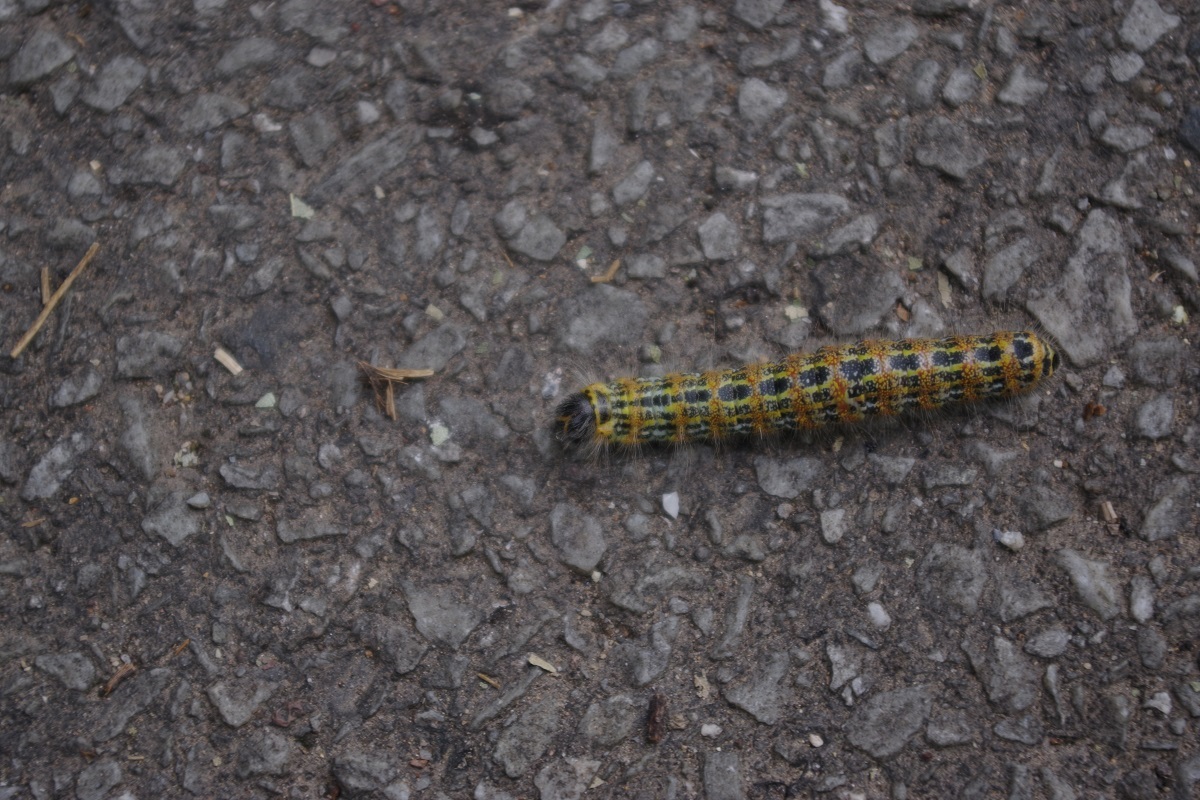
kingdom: Animalia
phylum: Arthropoda
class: Insecta
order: Lepidoptera
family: Notodontidae
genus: Phalera
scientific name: Phalera bucephala
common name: Buff-tip
